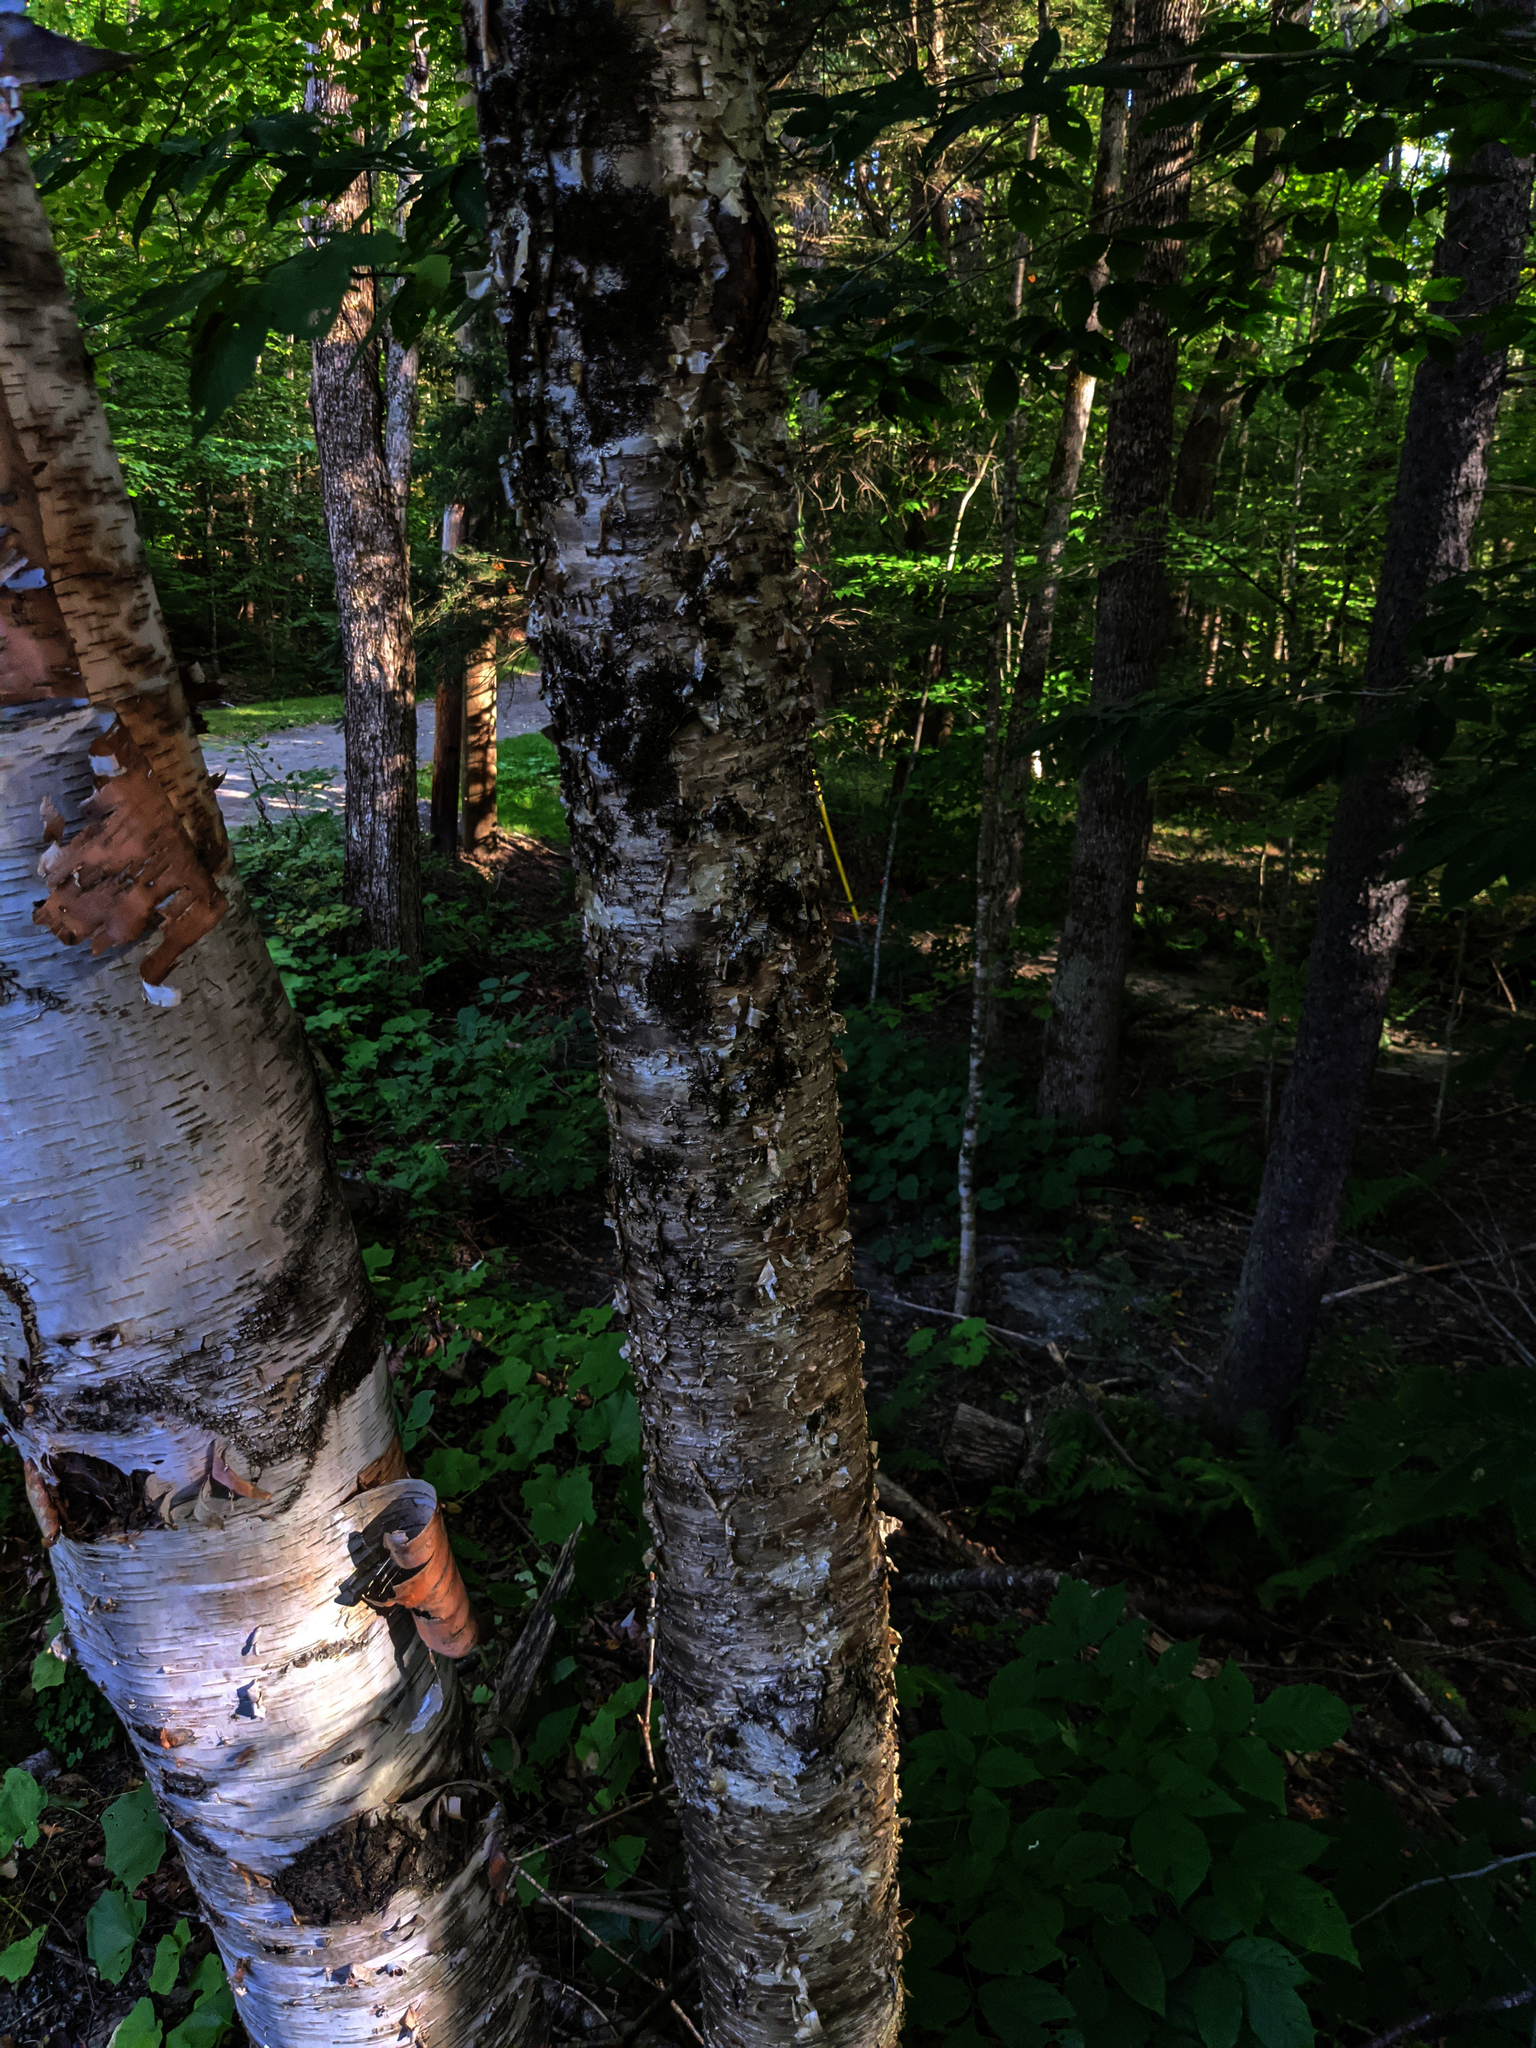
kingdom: Plantae
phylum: Tracheophyta
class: Magnoliopsida
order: Fagales
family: Betulaceae
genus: Betula
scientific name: Betula alleghaniensis
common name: Yellow birch
